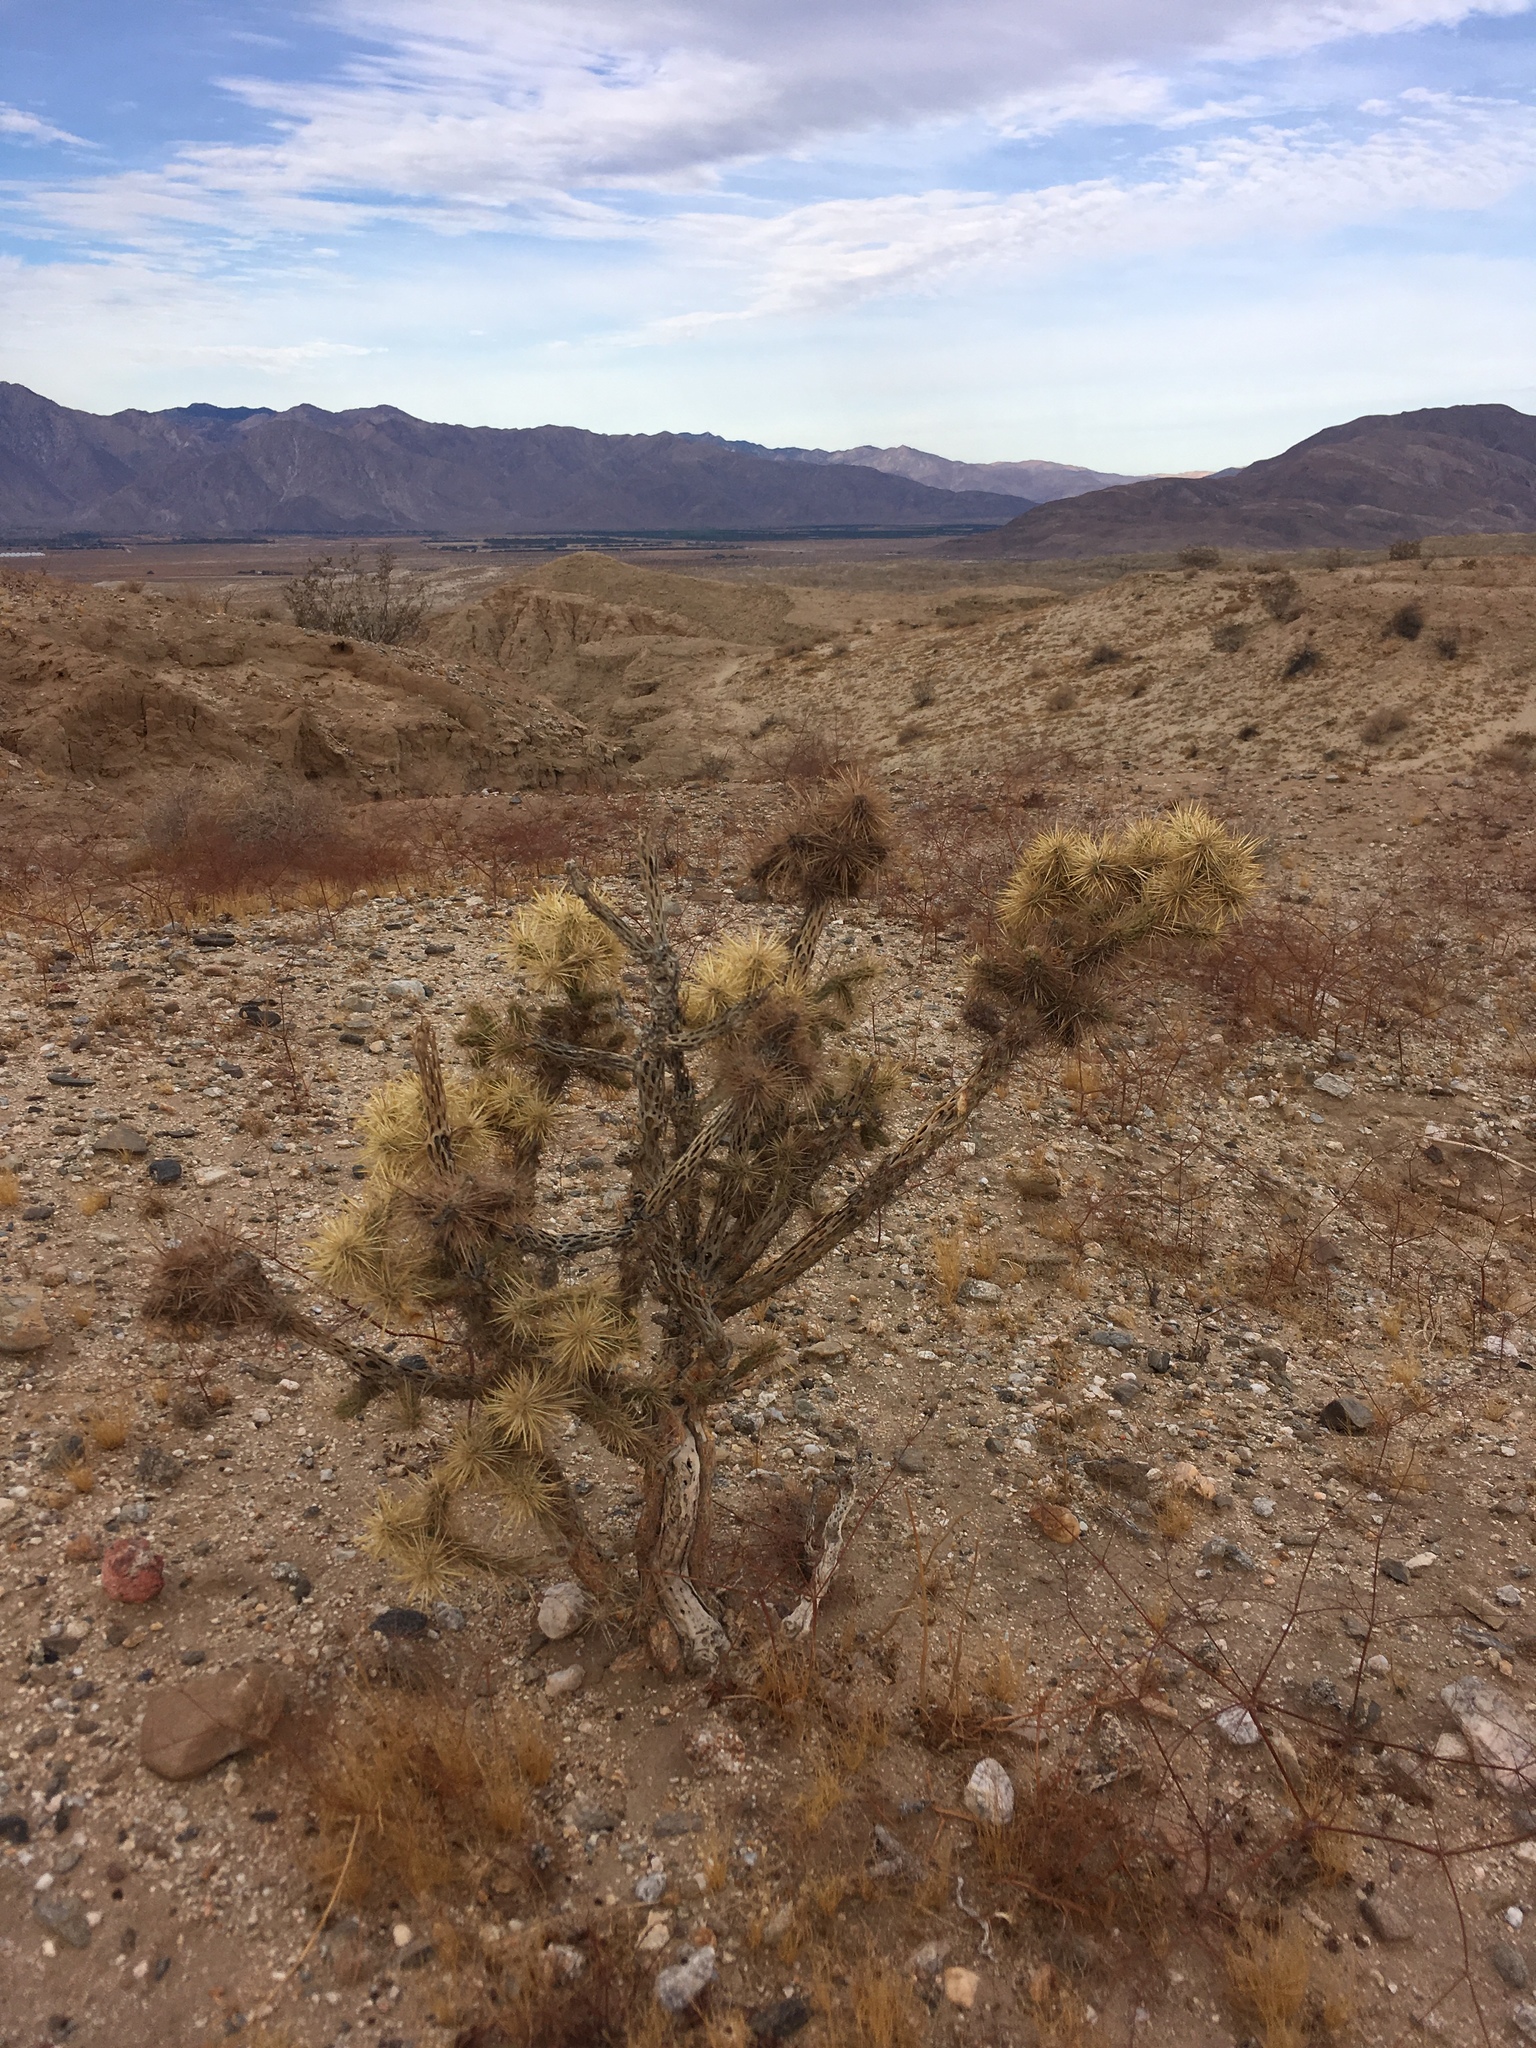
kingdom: Plantae
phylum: Tracheophyta
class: Magnoliopsida
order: Caryophyllales
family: Cactaceae
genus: Cylindropuntia
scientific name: Cylindropuntia echinocarpa
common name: Ground cholla
